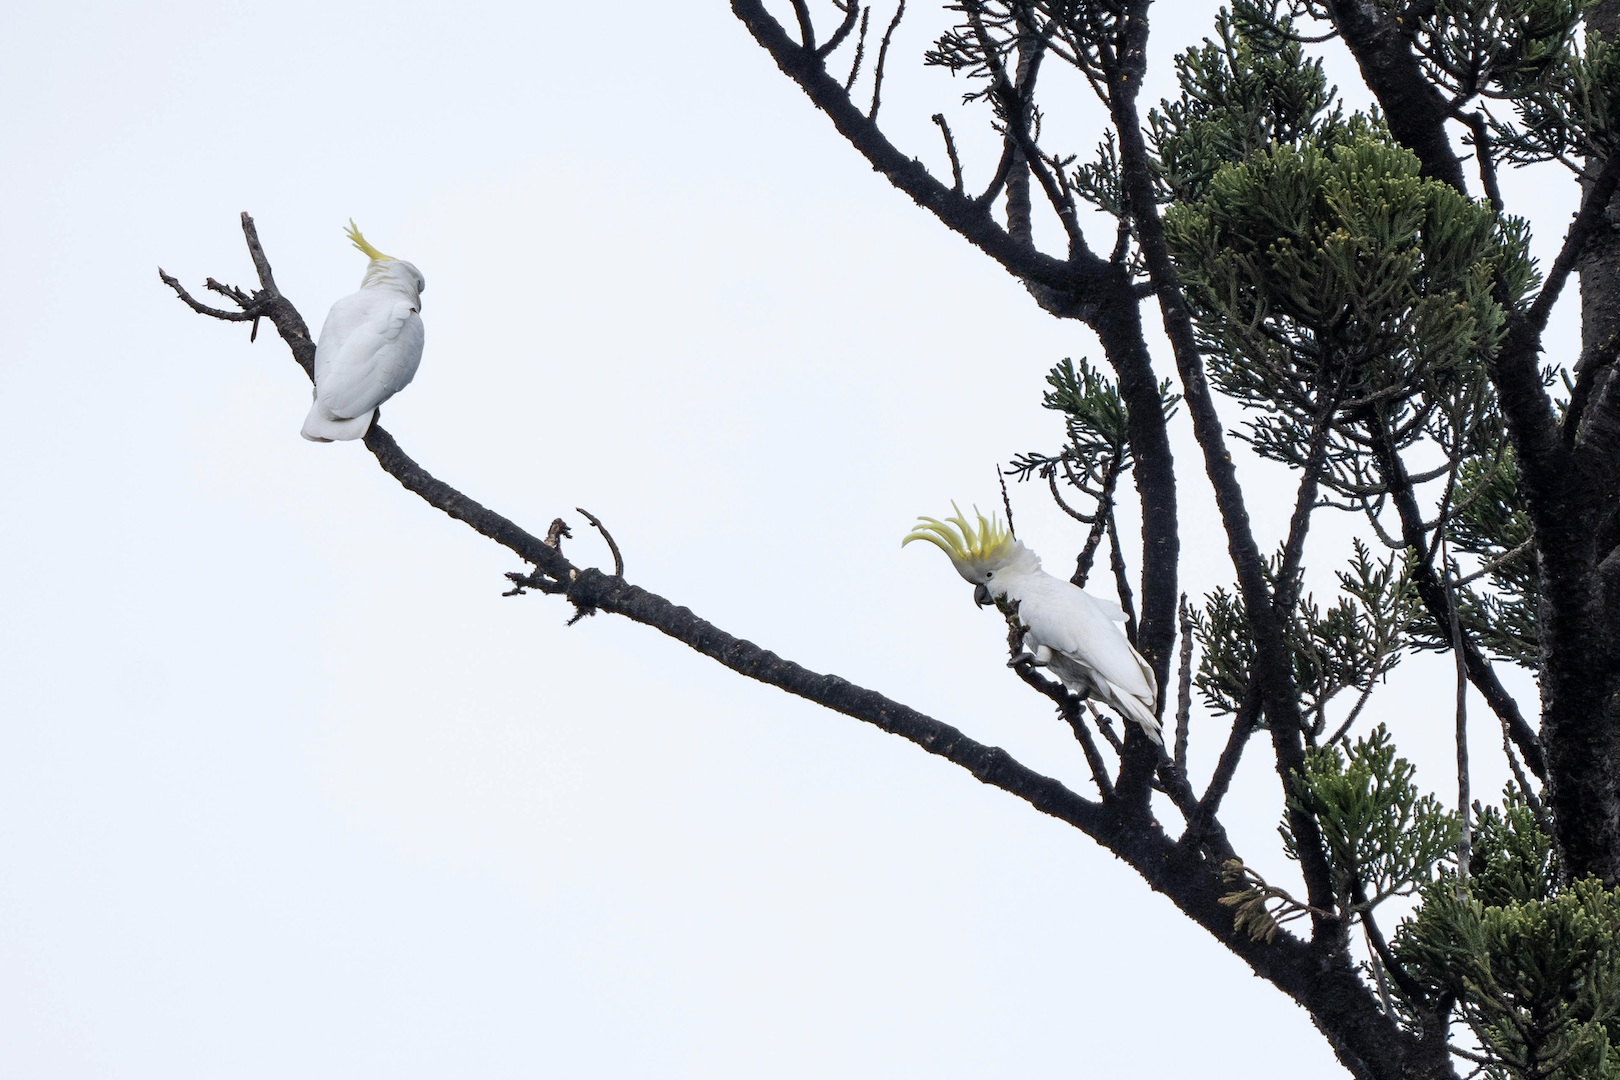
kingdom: Animalia
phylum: Chordata
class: Aves
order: Psittaciformes
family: Psittacidae
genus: Cacatua
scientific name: Cacatua galerita
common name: Sulphur-crested cockatoo
